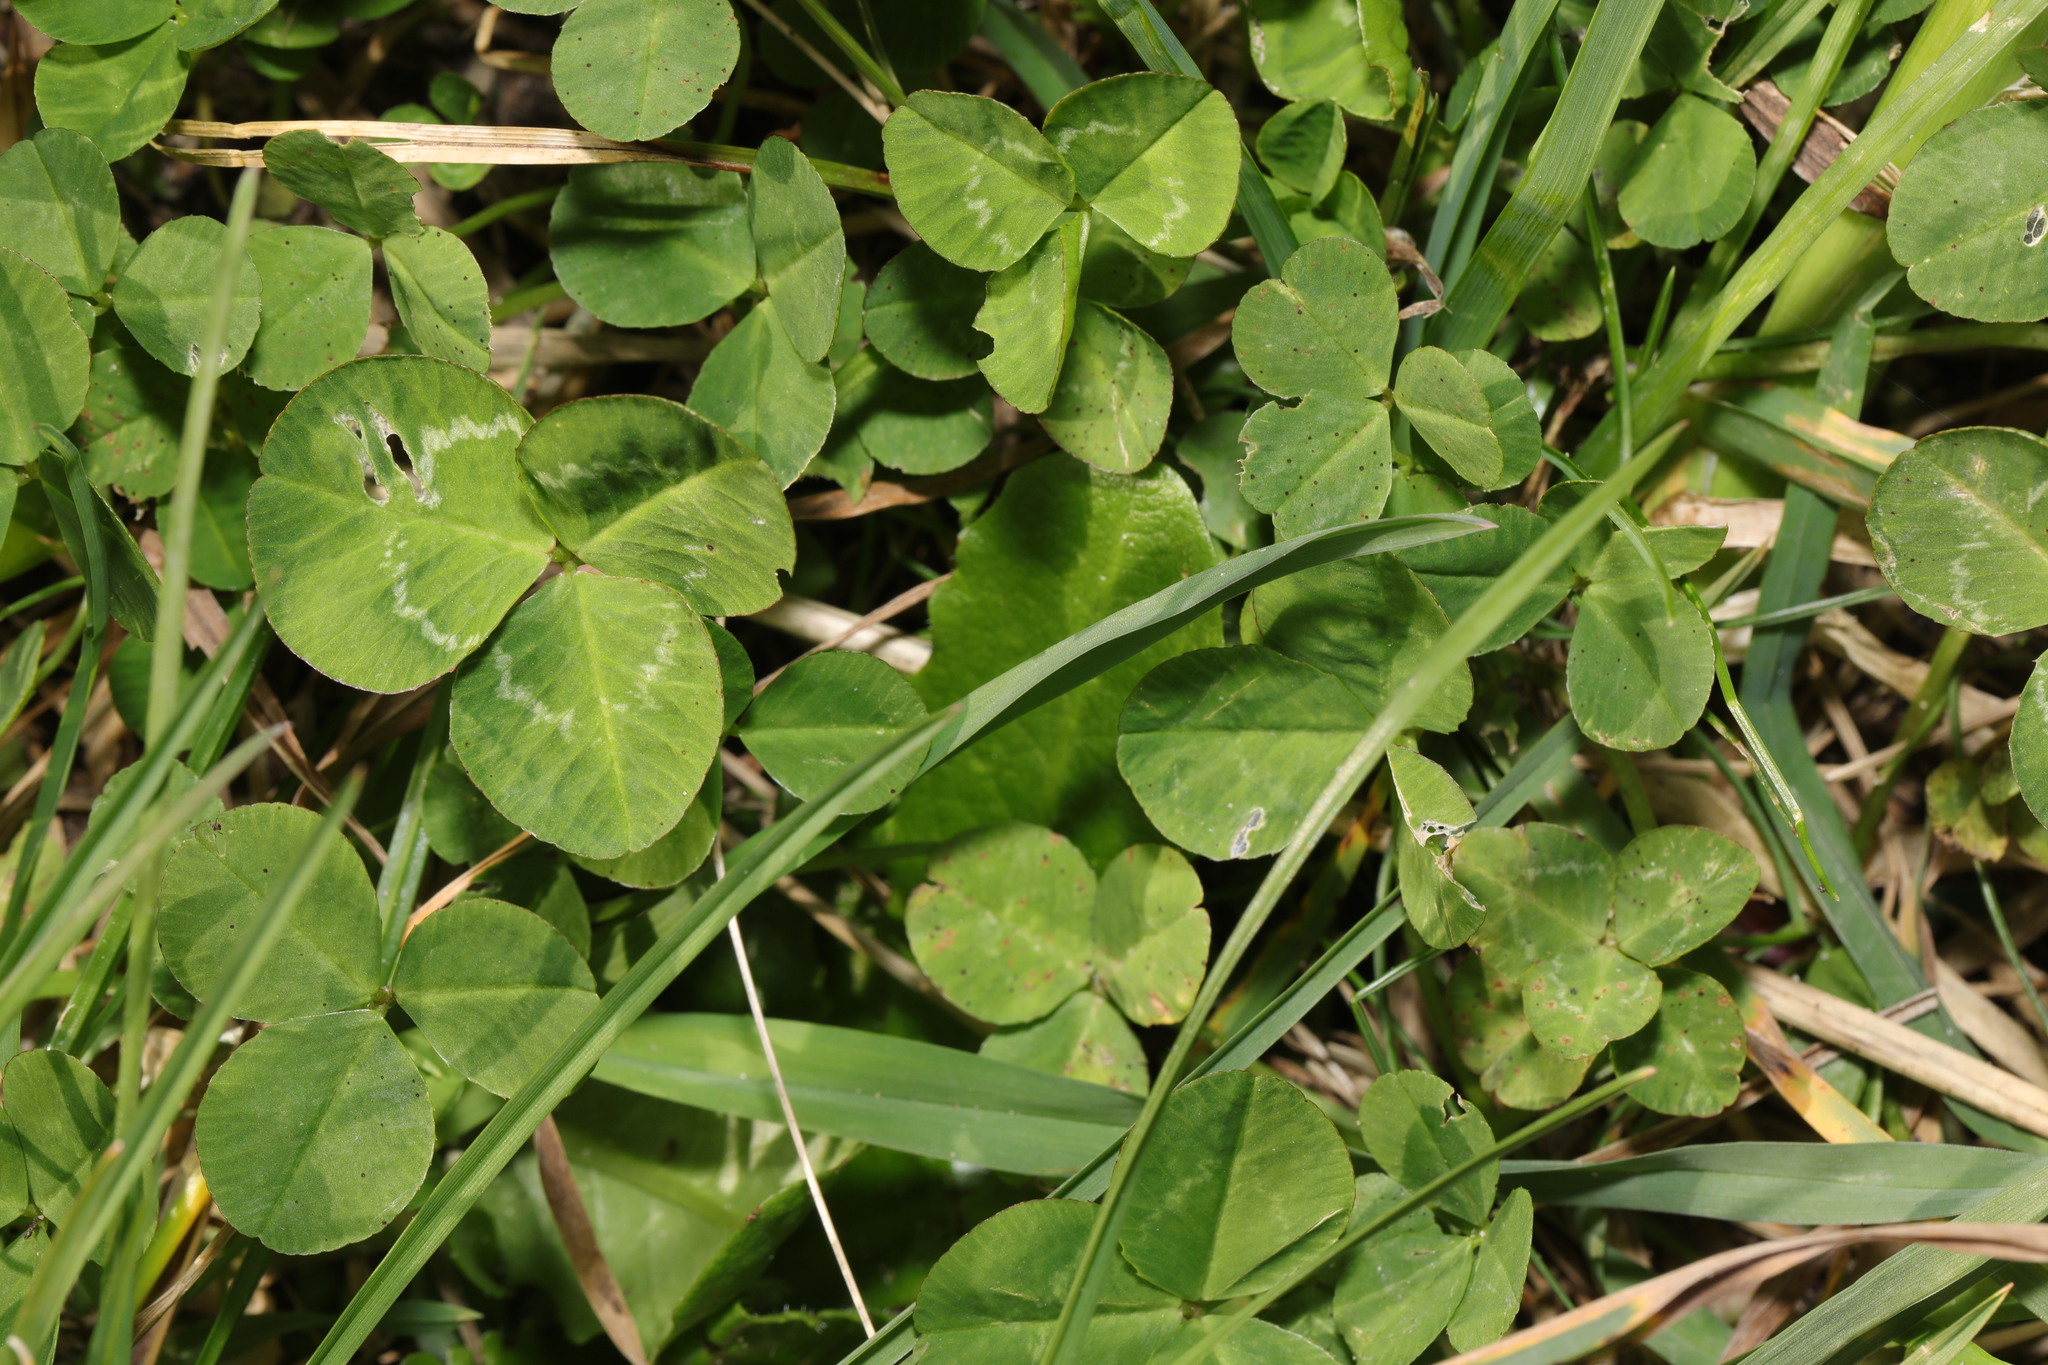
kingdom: Plantae
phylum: Tracheophyta
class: Magnoliopsida
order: Fabales
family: Fabaceae
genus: Trifolium
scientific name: Trifolium repens
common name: White clover
